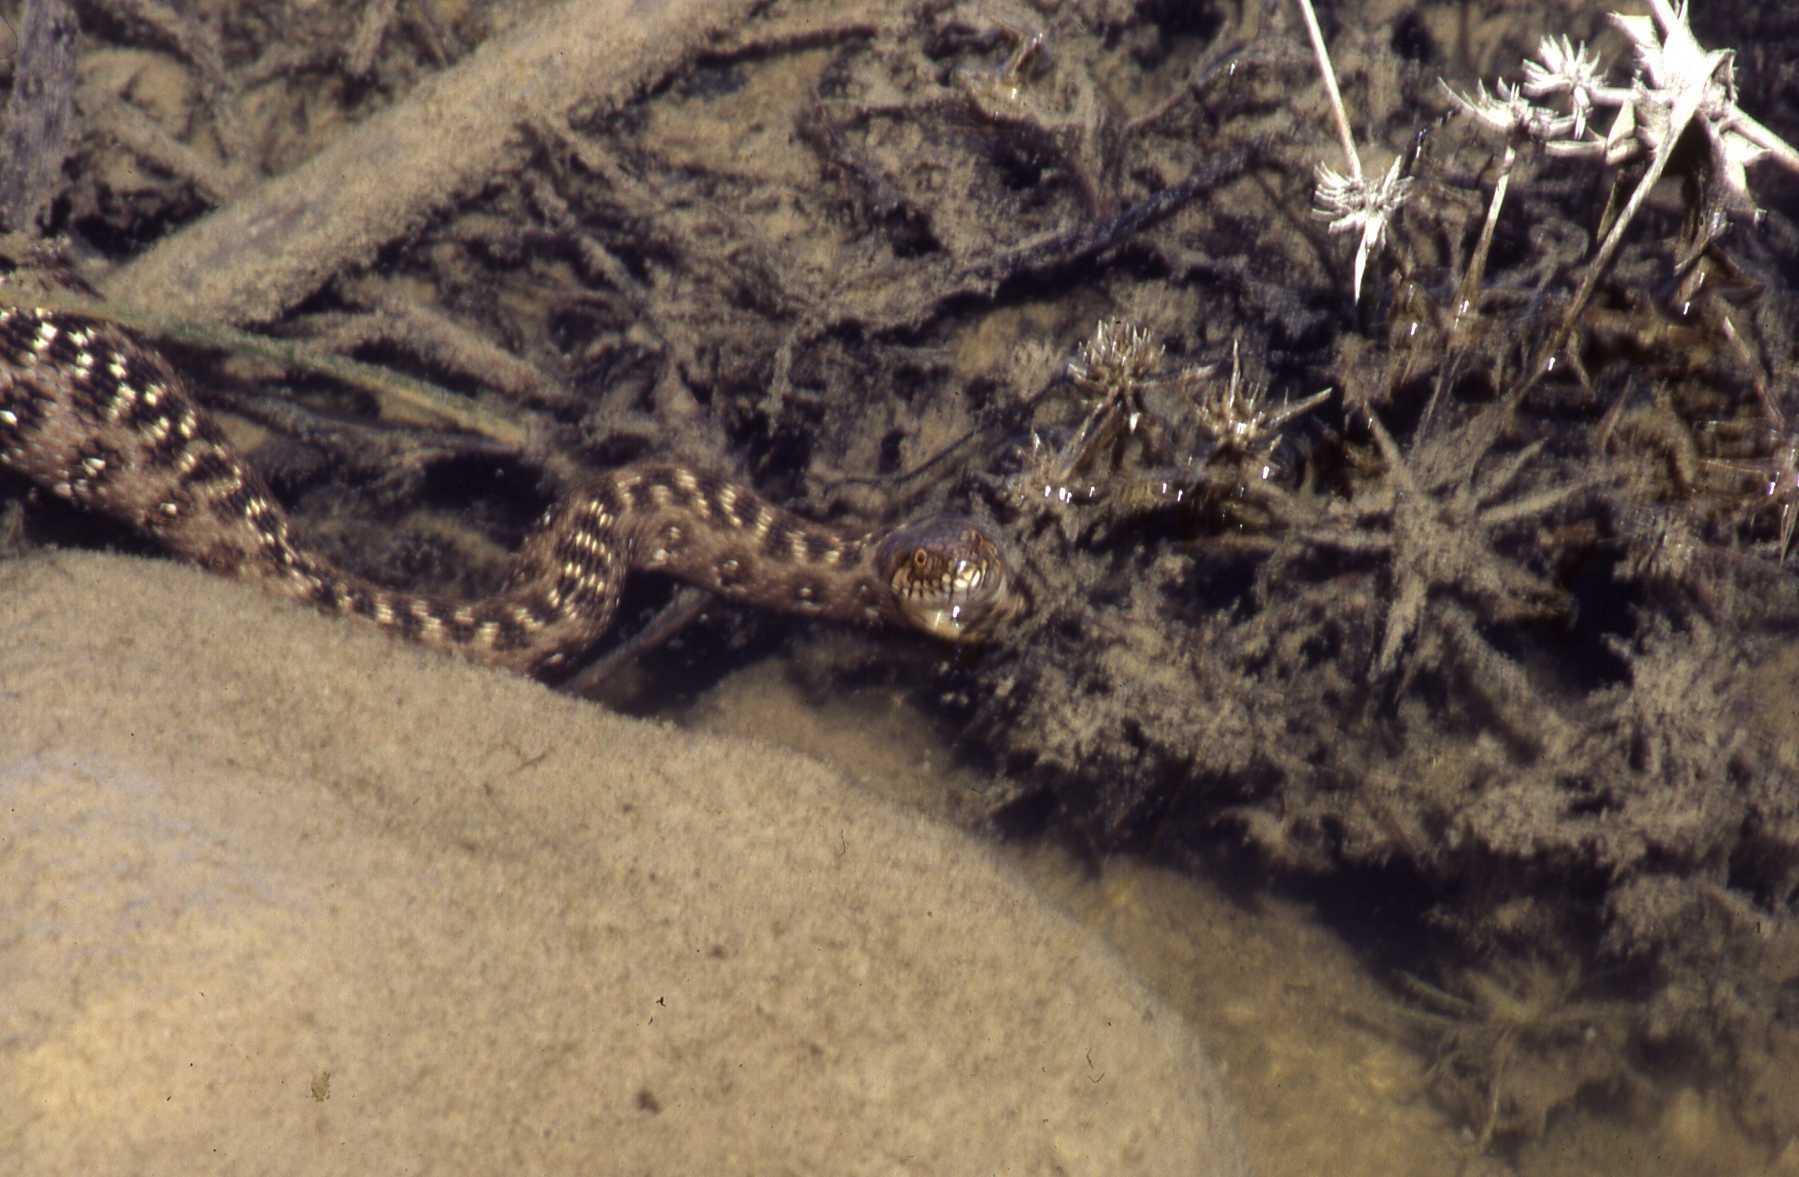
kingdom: Animalia
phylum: Chordata
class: Squamata
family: Colubridae
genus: Natrix
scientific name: Natrix maura
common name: Viperine water snake
